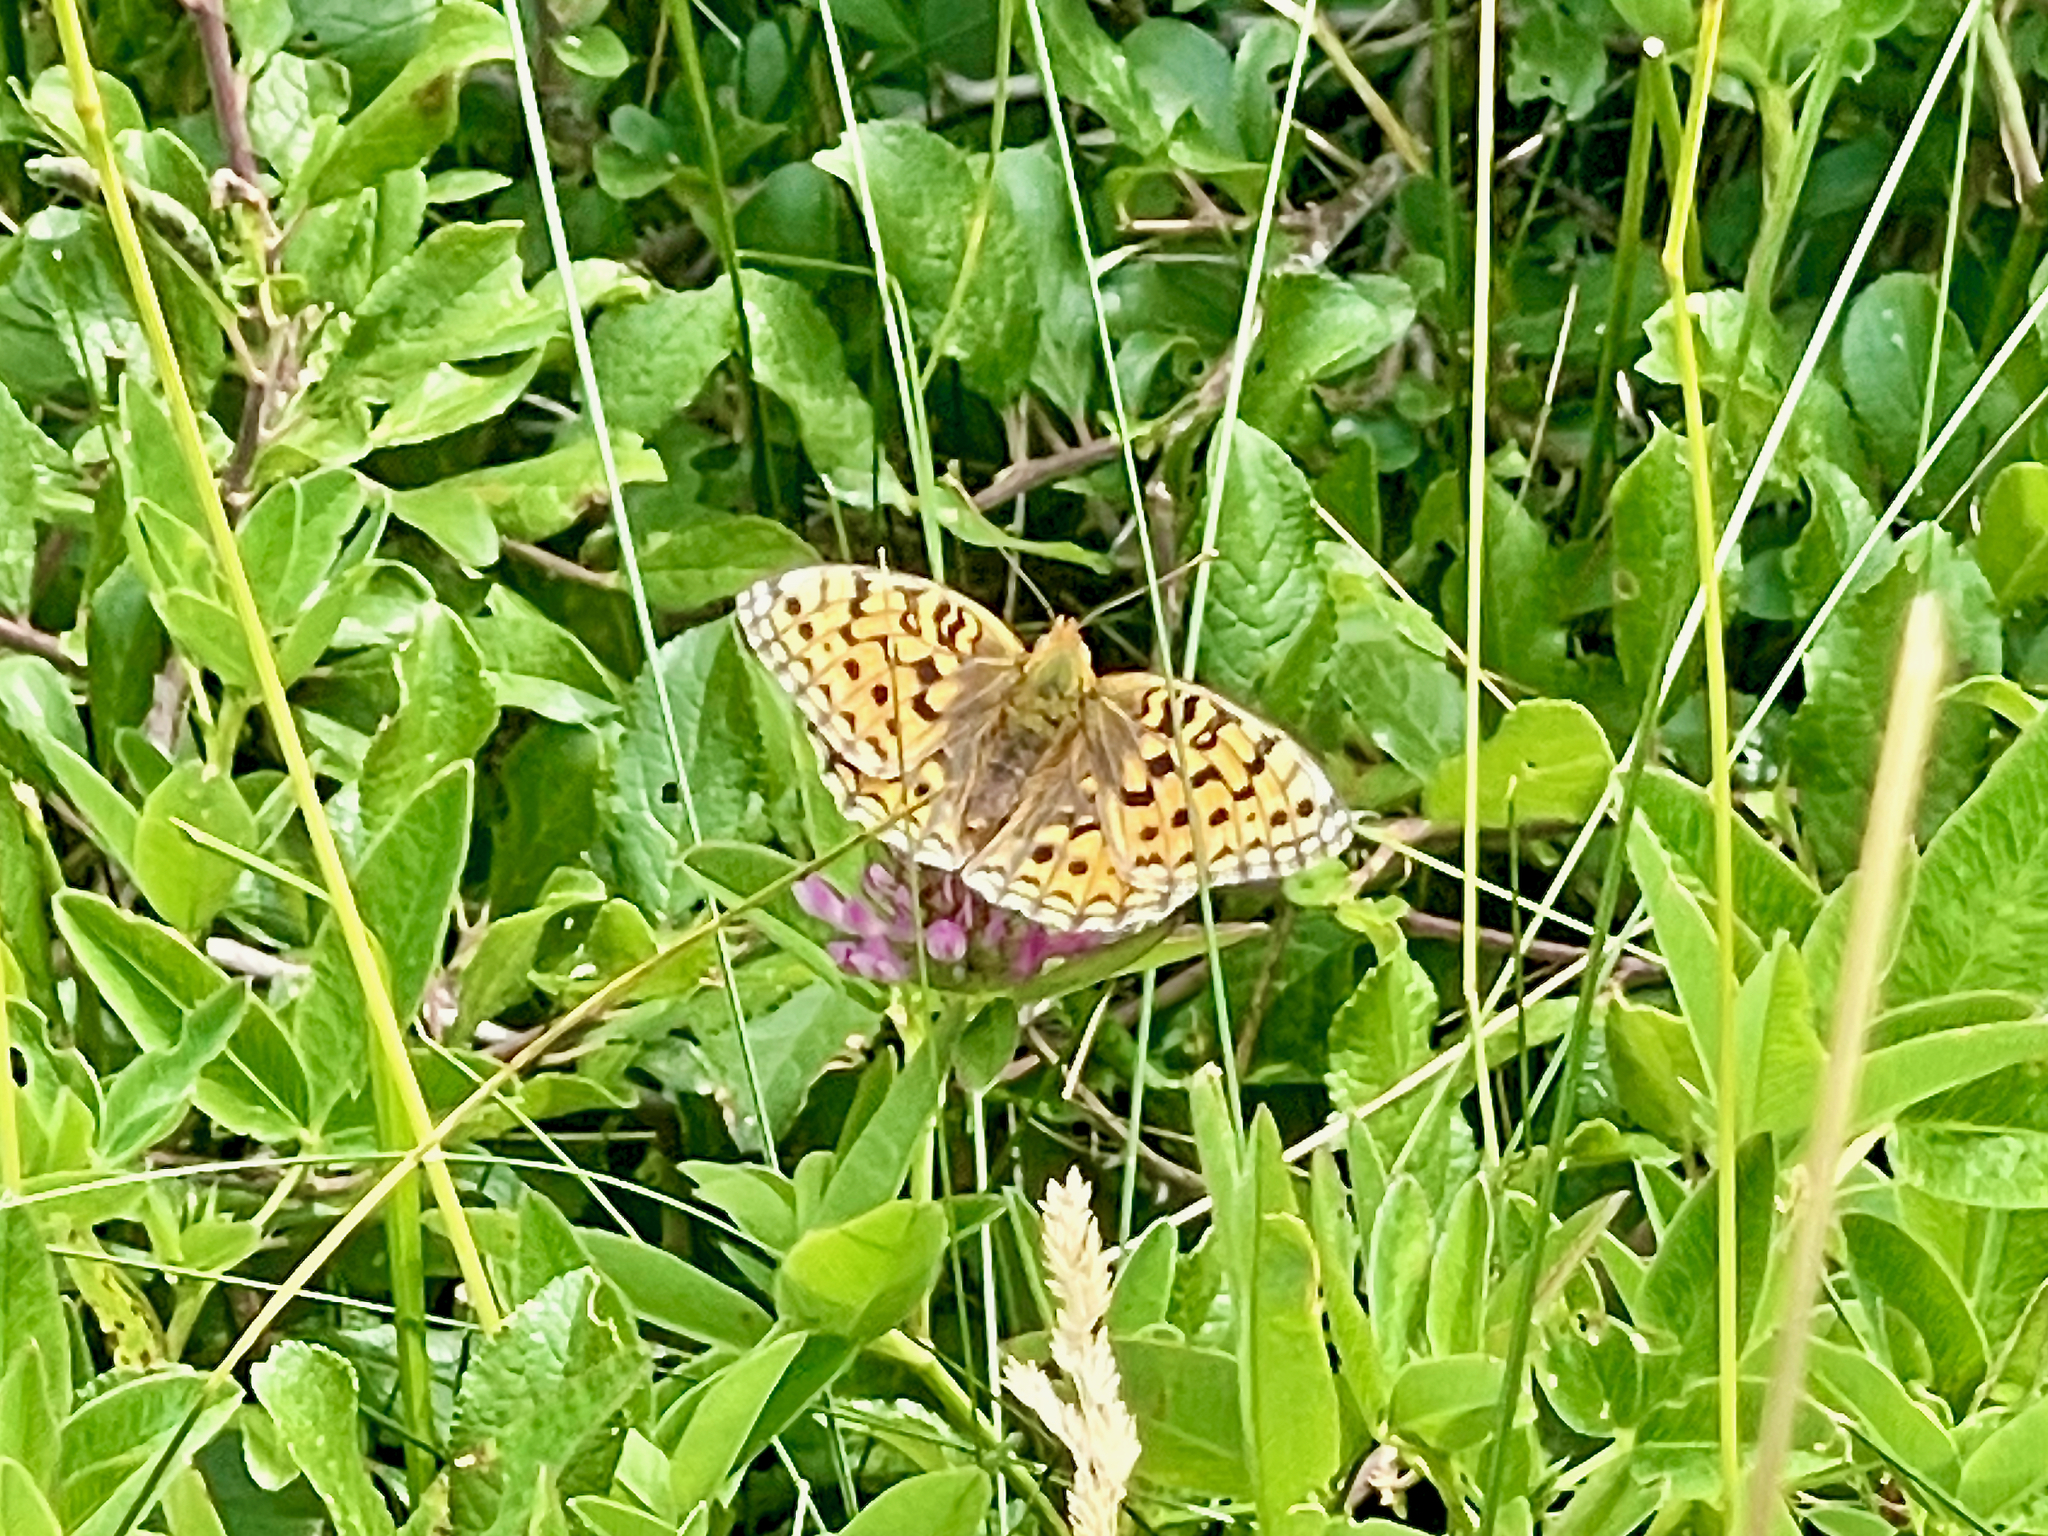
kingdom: Animalia
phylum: Arthropoda
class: Insecta
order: Lepidoptera
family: Nymphalidae
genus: Fabriciana
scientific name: Fabriciana niobe
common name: Niobe fritillary
